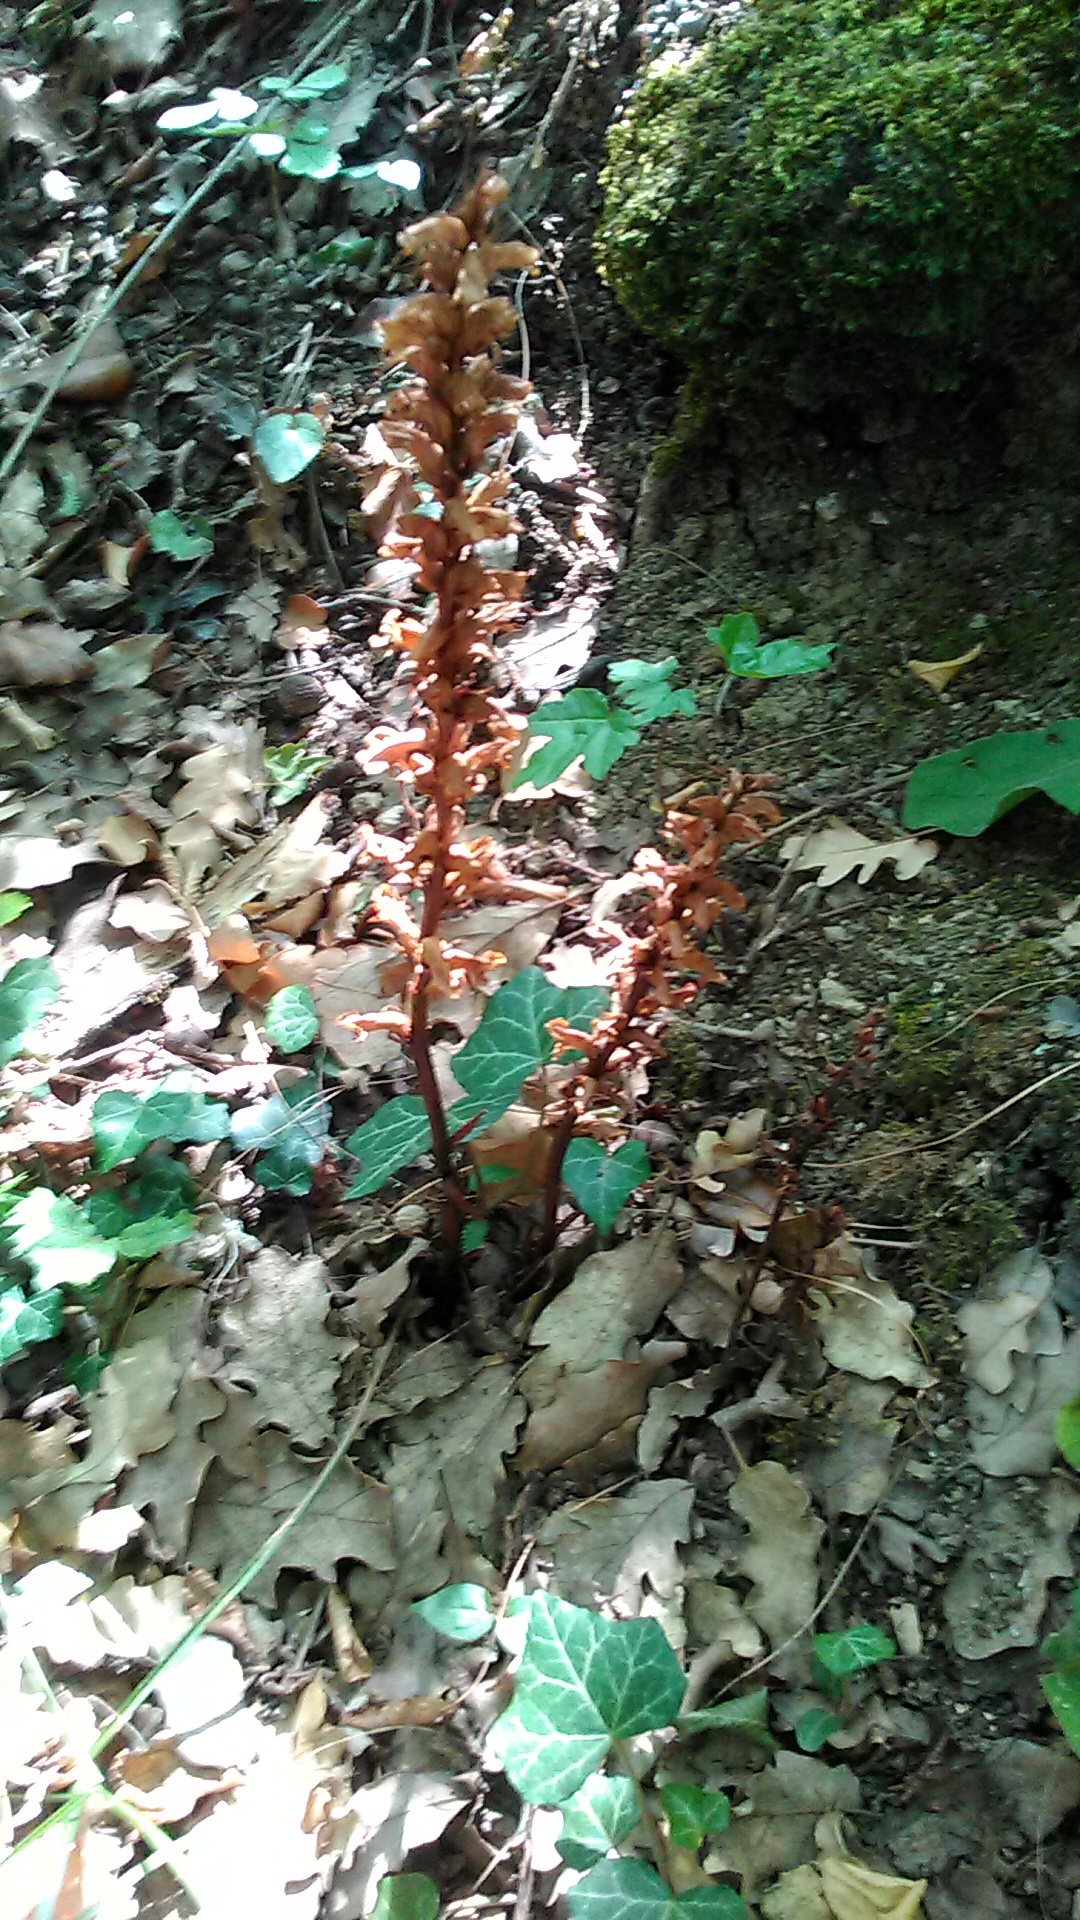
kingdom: Plantae
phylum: Tracheophyta
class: Magnoliopsida
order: Lamiales
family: Orobanchaceae
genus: Orobanche
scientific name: Orobanche hederae
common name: Ivy broomrape
